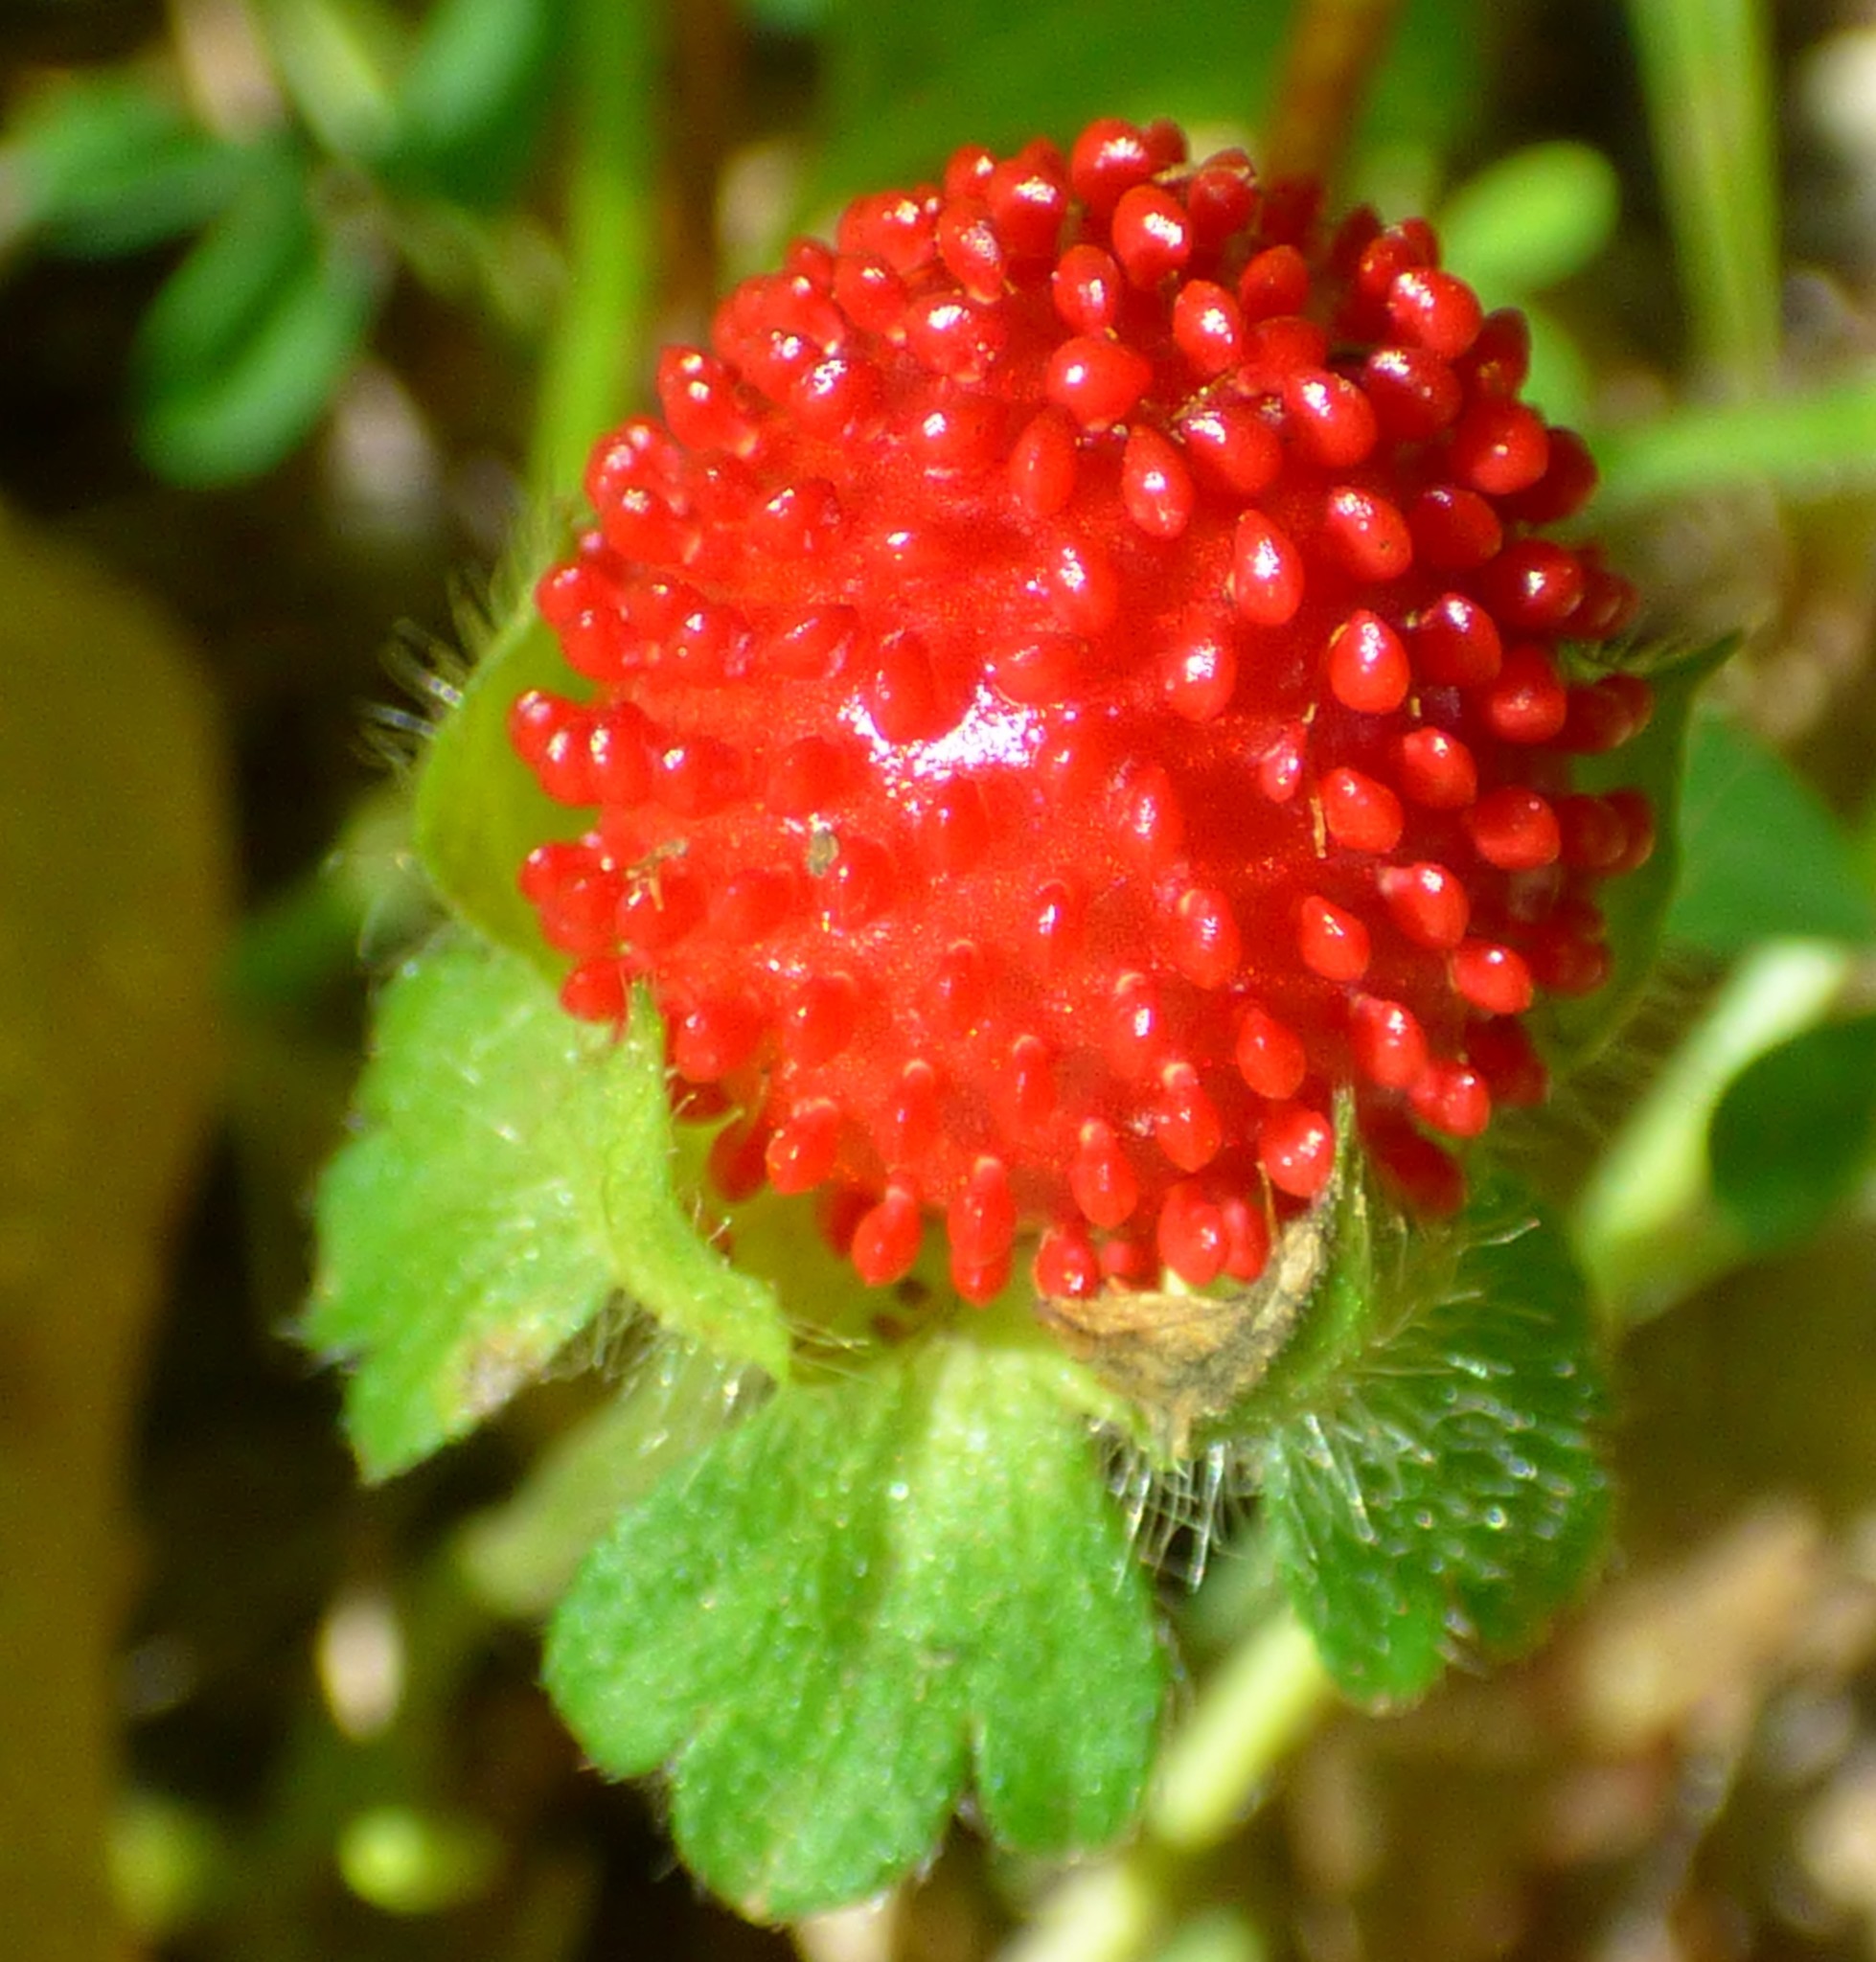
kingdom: Plantae
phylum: Tracheophyta
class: Magnoliopsida
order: Rosales
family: Rosaceae
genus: Potentilla
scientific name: Potentilla indica
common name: Yellow-flowered strawberry
